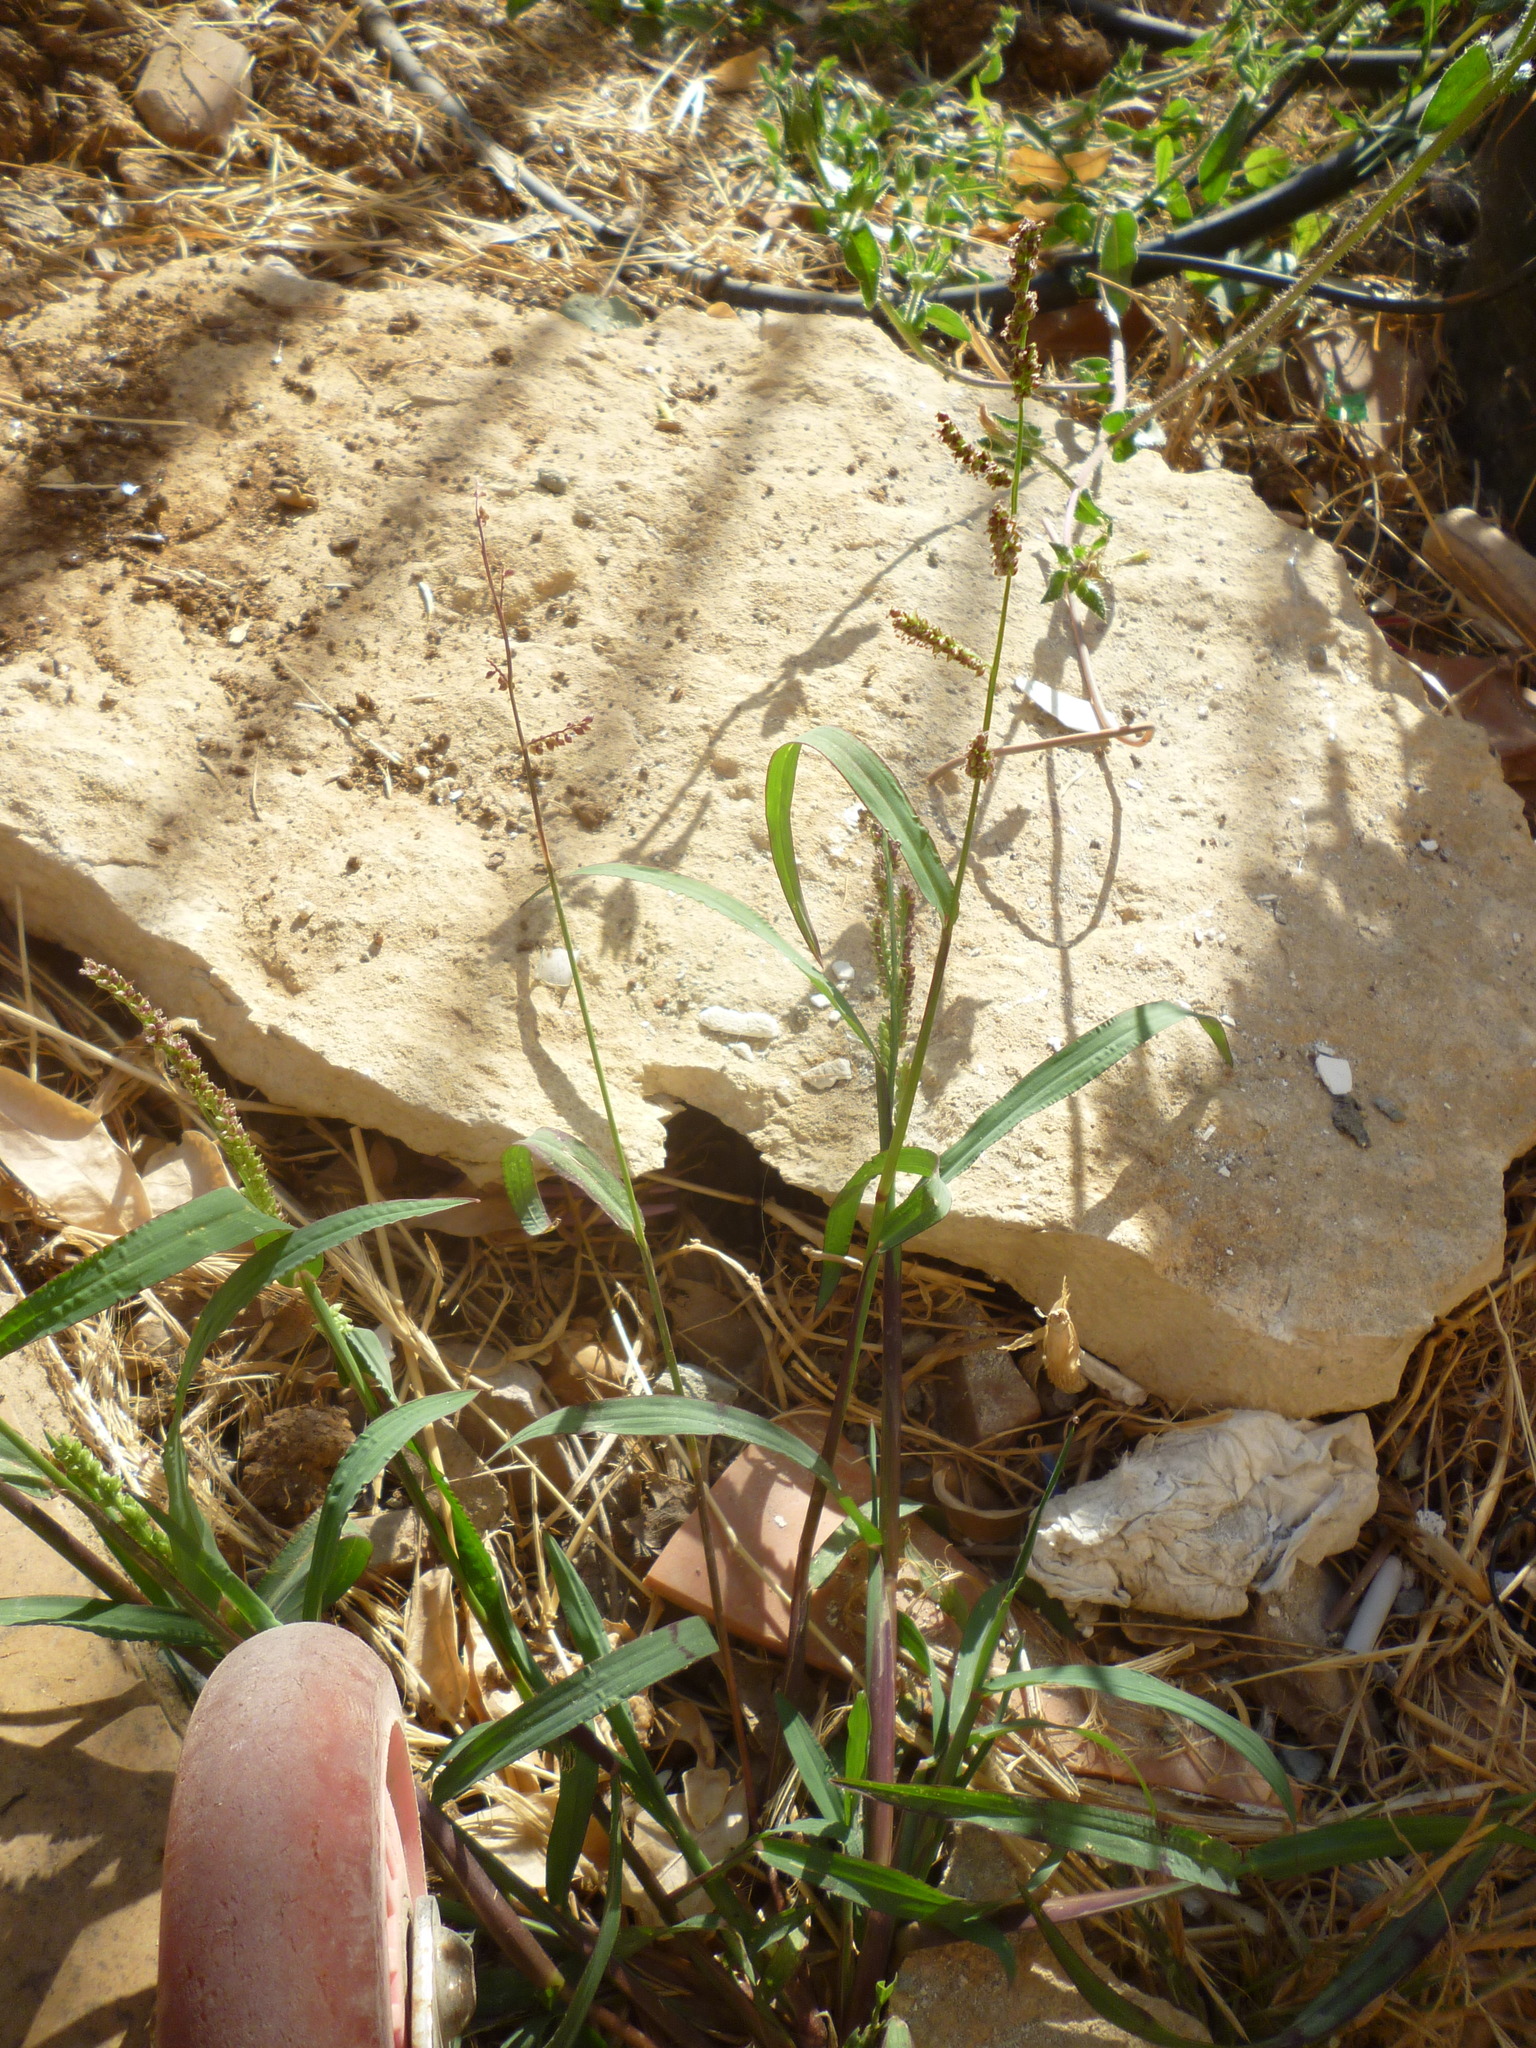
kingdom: Plantae
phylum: Tracheophyta
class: Liliopsida
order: Poales
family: Poaceae
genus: Echinochloa
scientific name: Echinochloa colonum
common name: Jungle rice
